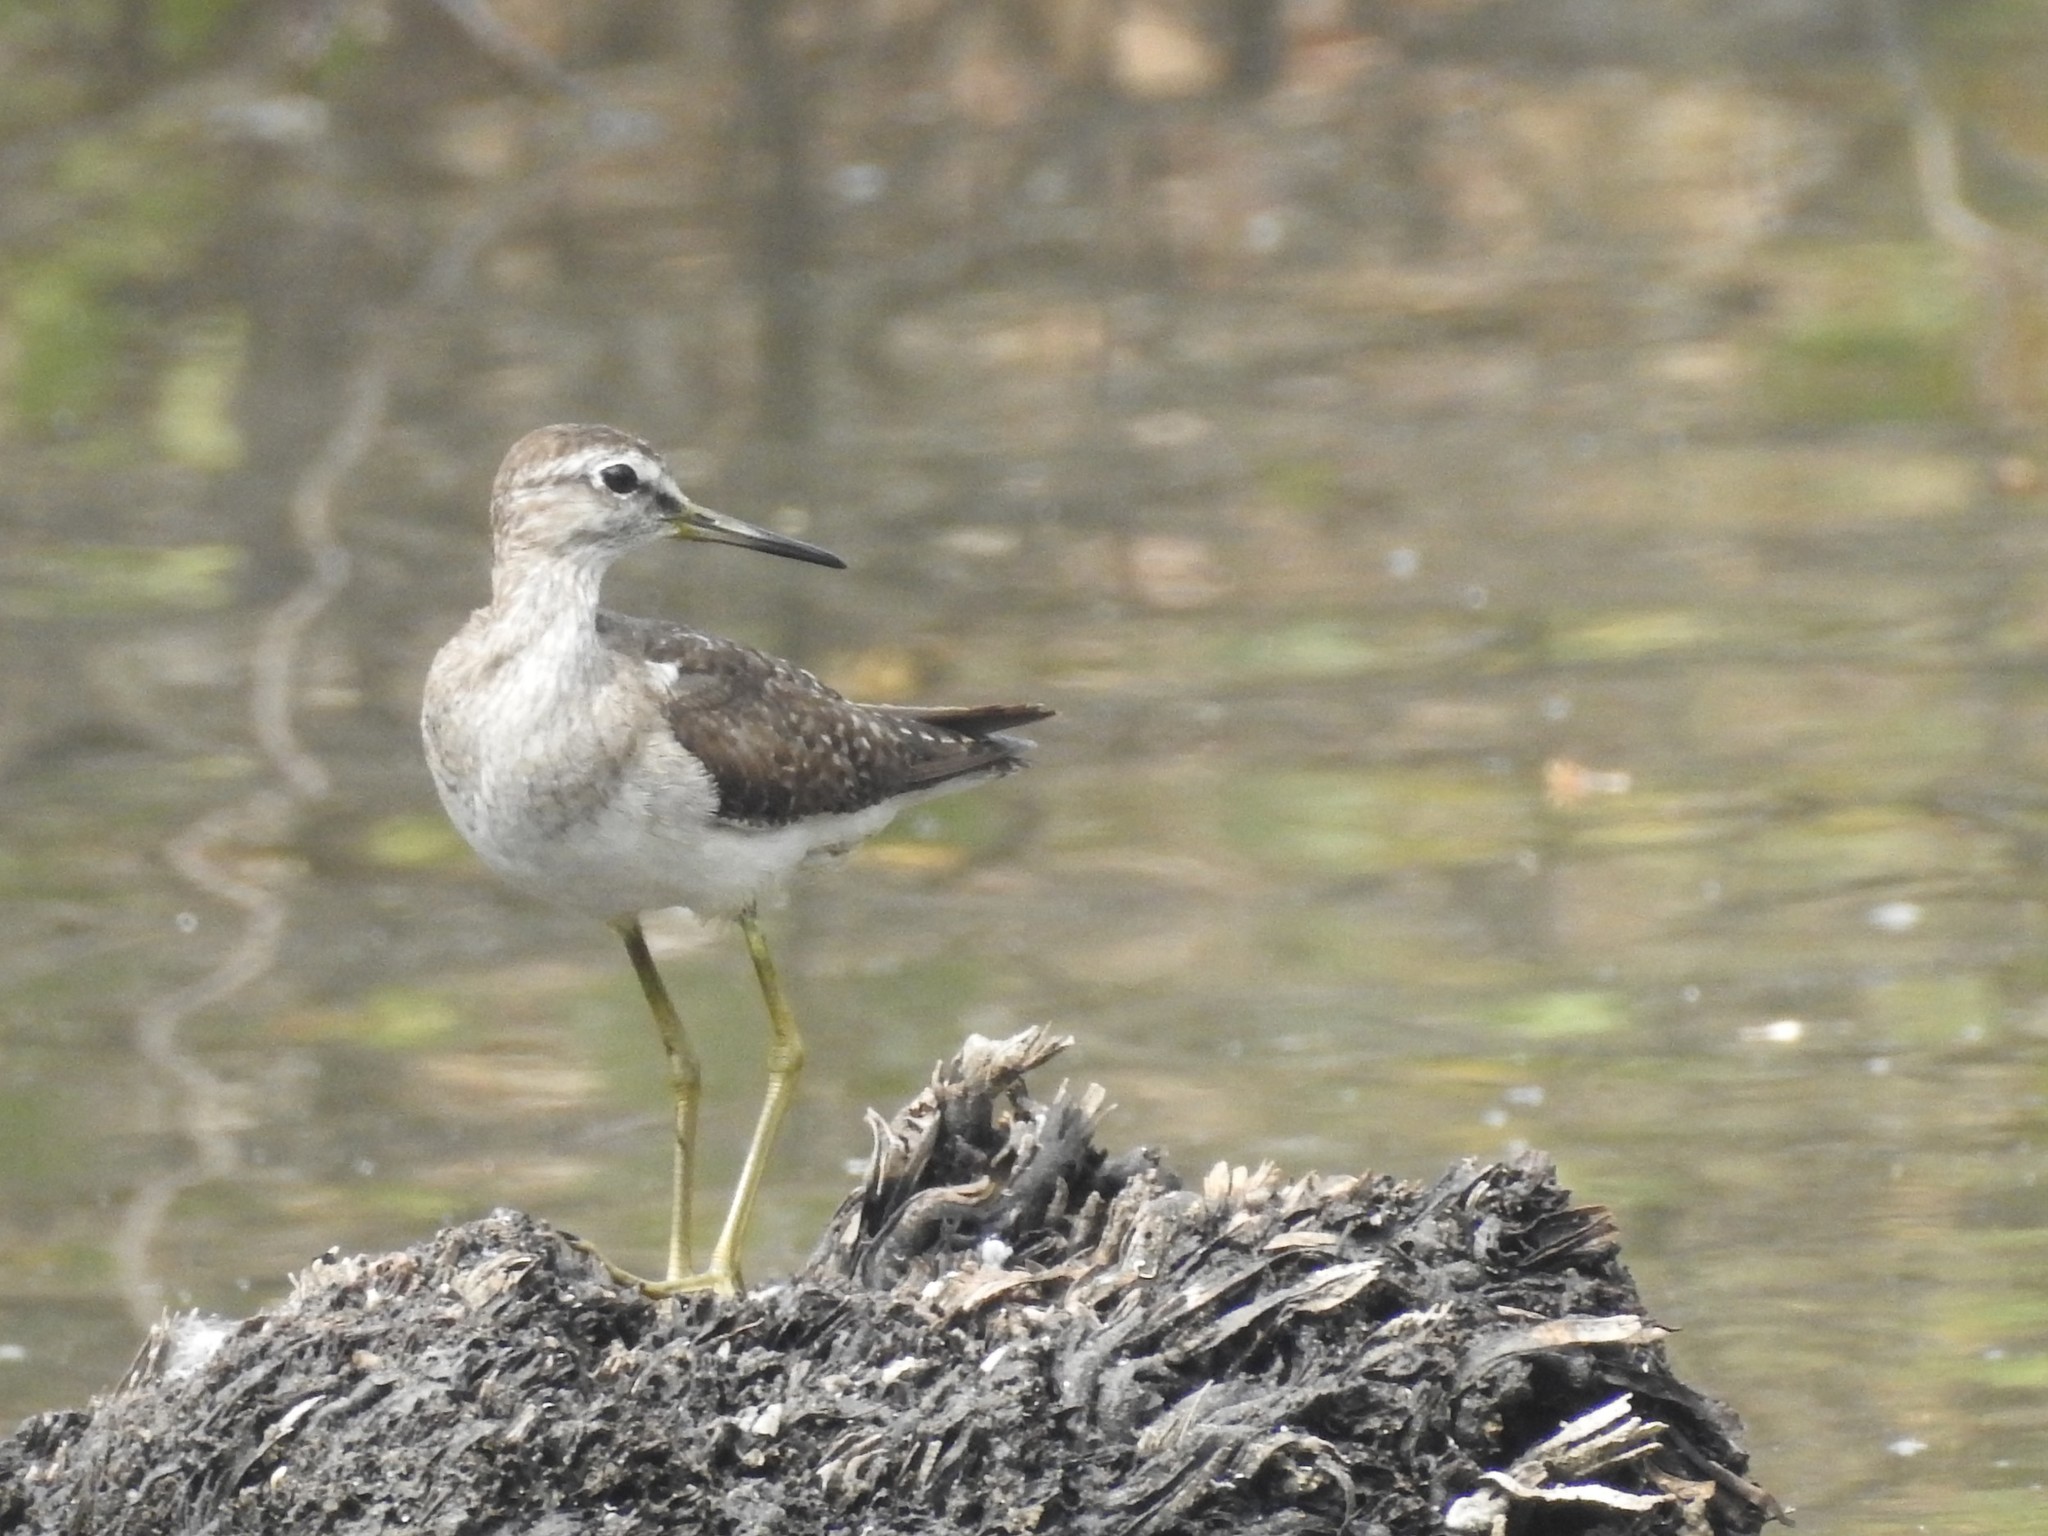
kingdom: Animalia
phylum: Chordata
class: Aves
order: Charadriiformes
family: Scolopacidae
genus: Tringa
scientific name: Tringa glareola
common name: Wood sandpiper
